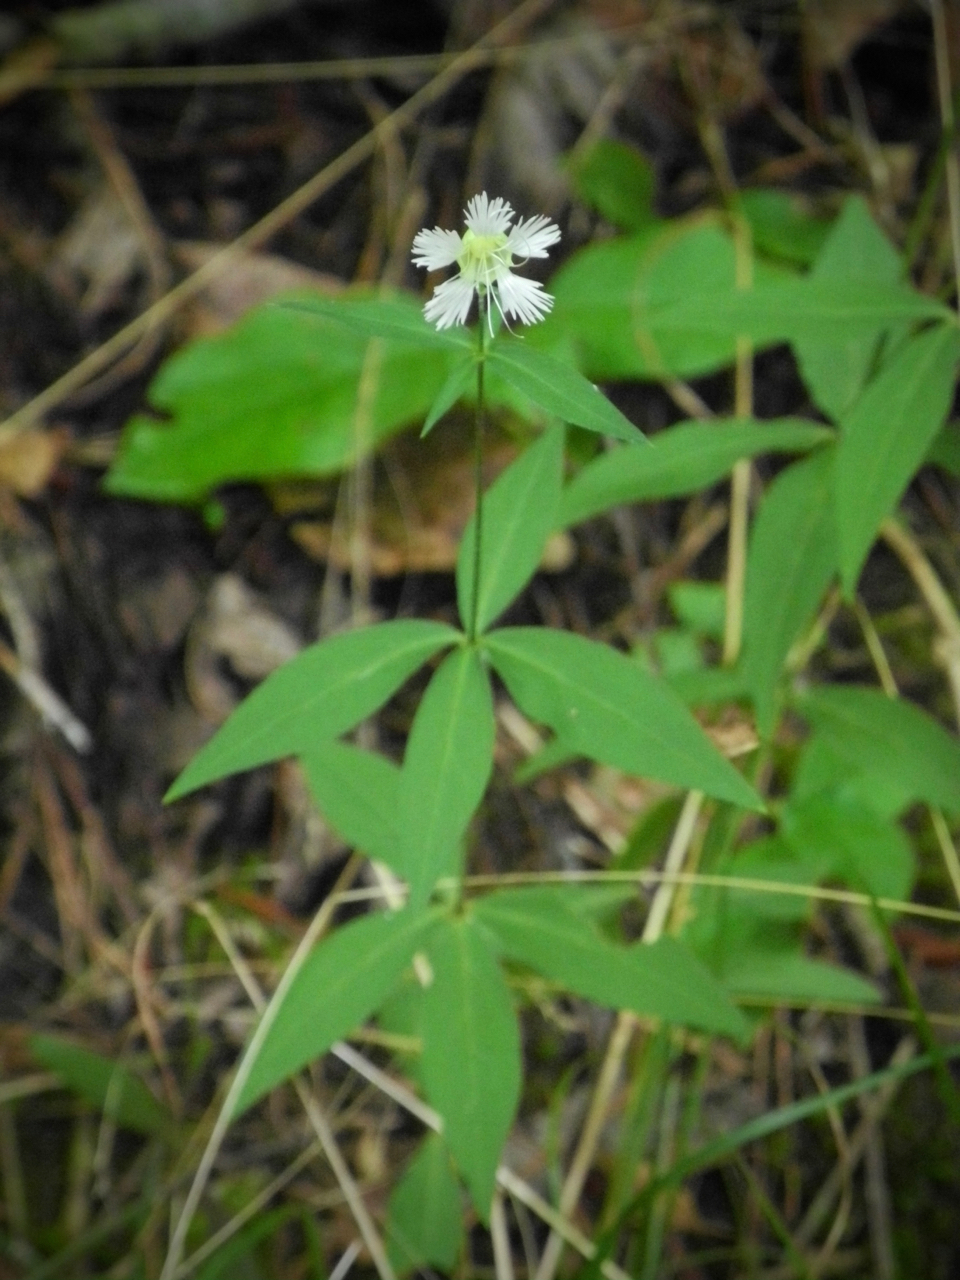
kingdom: Plantae
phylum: Tracheophyta
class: Magnoliopsida
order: Caryophyllales
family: Caryophyllaceae
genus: Silene
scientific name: Silene stellata
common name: Starry campion
